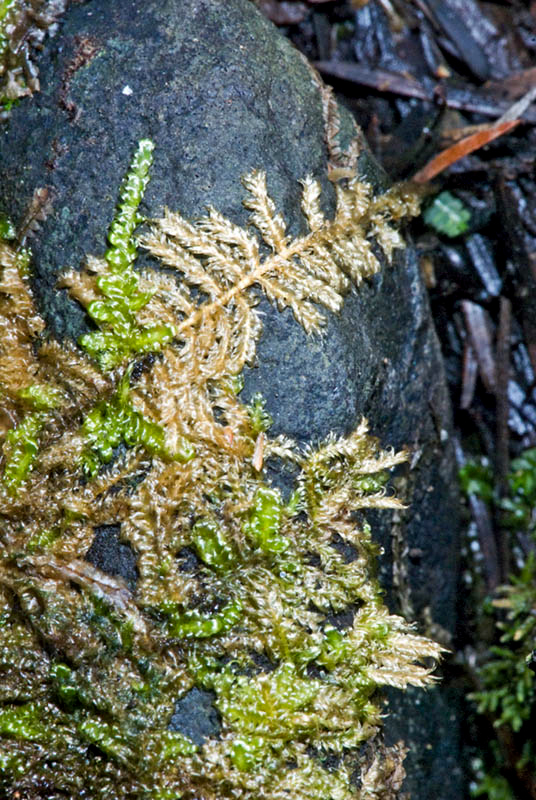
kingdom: Plantae
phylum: Bryophyta
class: Bryopsida
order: Hypnales
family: Hypnaceae
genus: Ectropothecium
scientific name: Ectropothecium sandwichense
